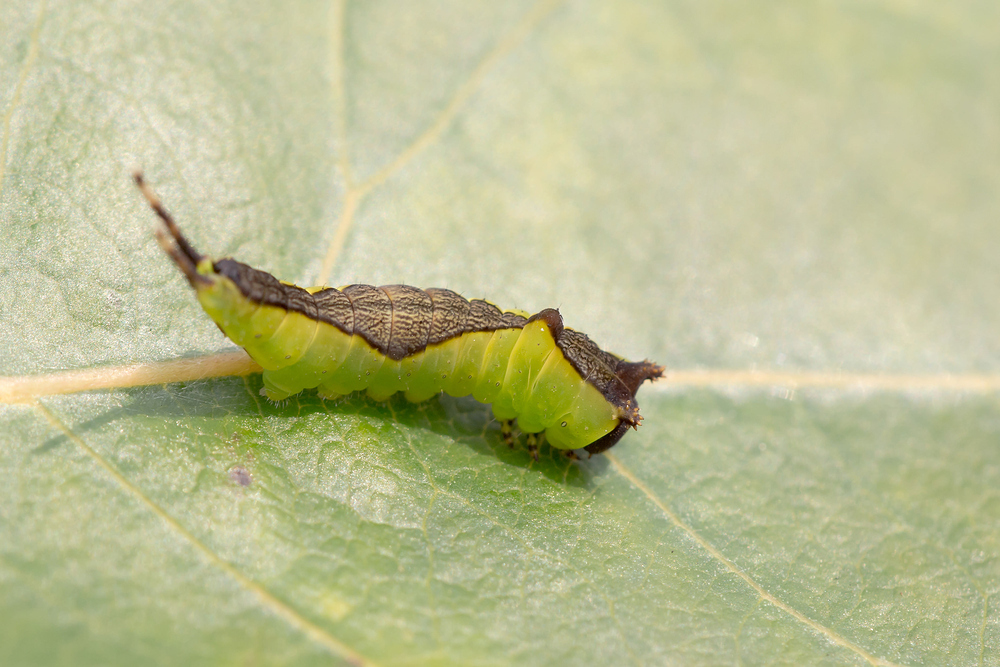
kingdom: Animalia
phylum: Arthropoda
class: Insecta
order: Lepidoptera
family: Notodontidae
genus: Cerura
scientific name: Cerura vinula
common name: Puss moth
